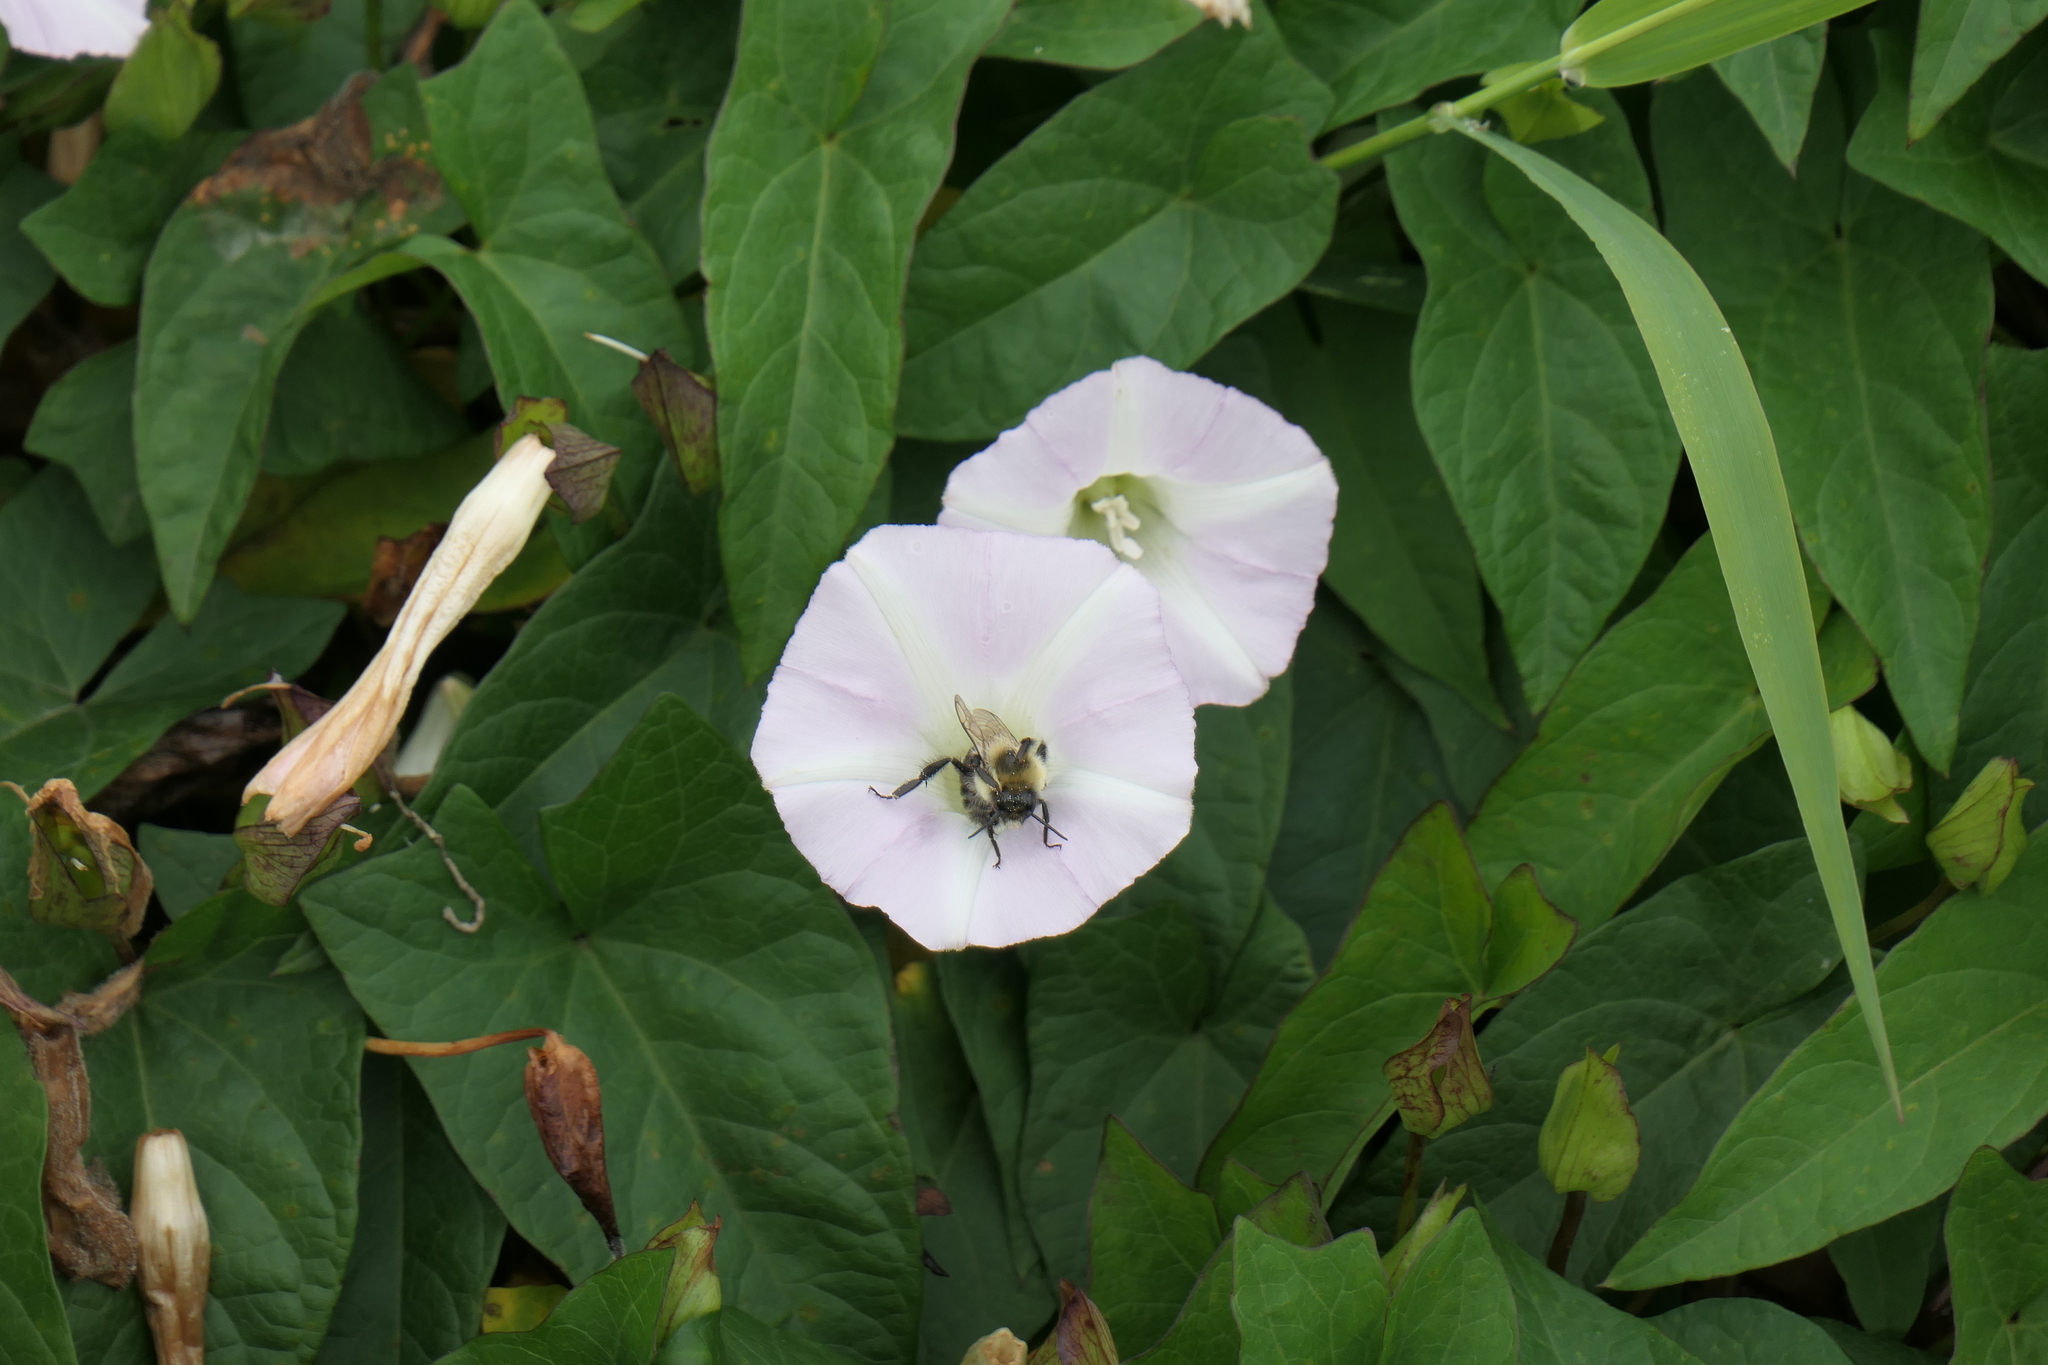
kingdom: Animalia
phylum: Arthropoda
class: Insecta
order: Hymenoptera
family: Apidae
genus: Bombus
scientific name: Bombus impatiens
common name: Common eastern bumble bee
